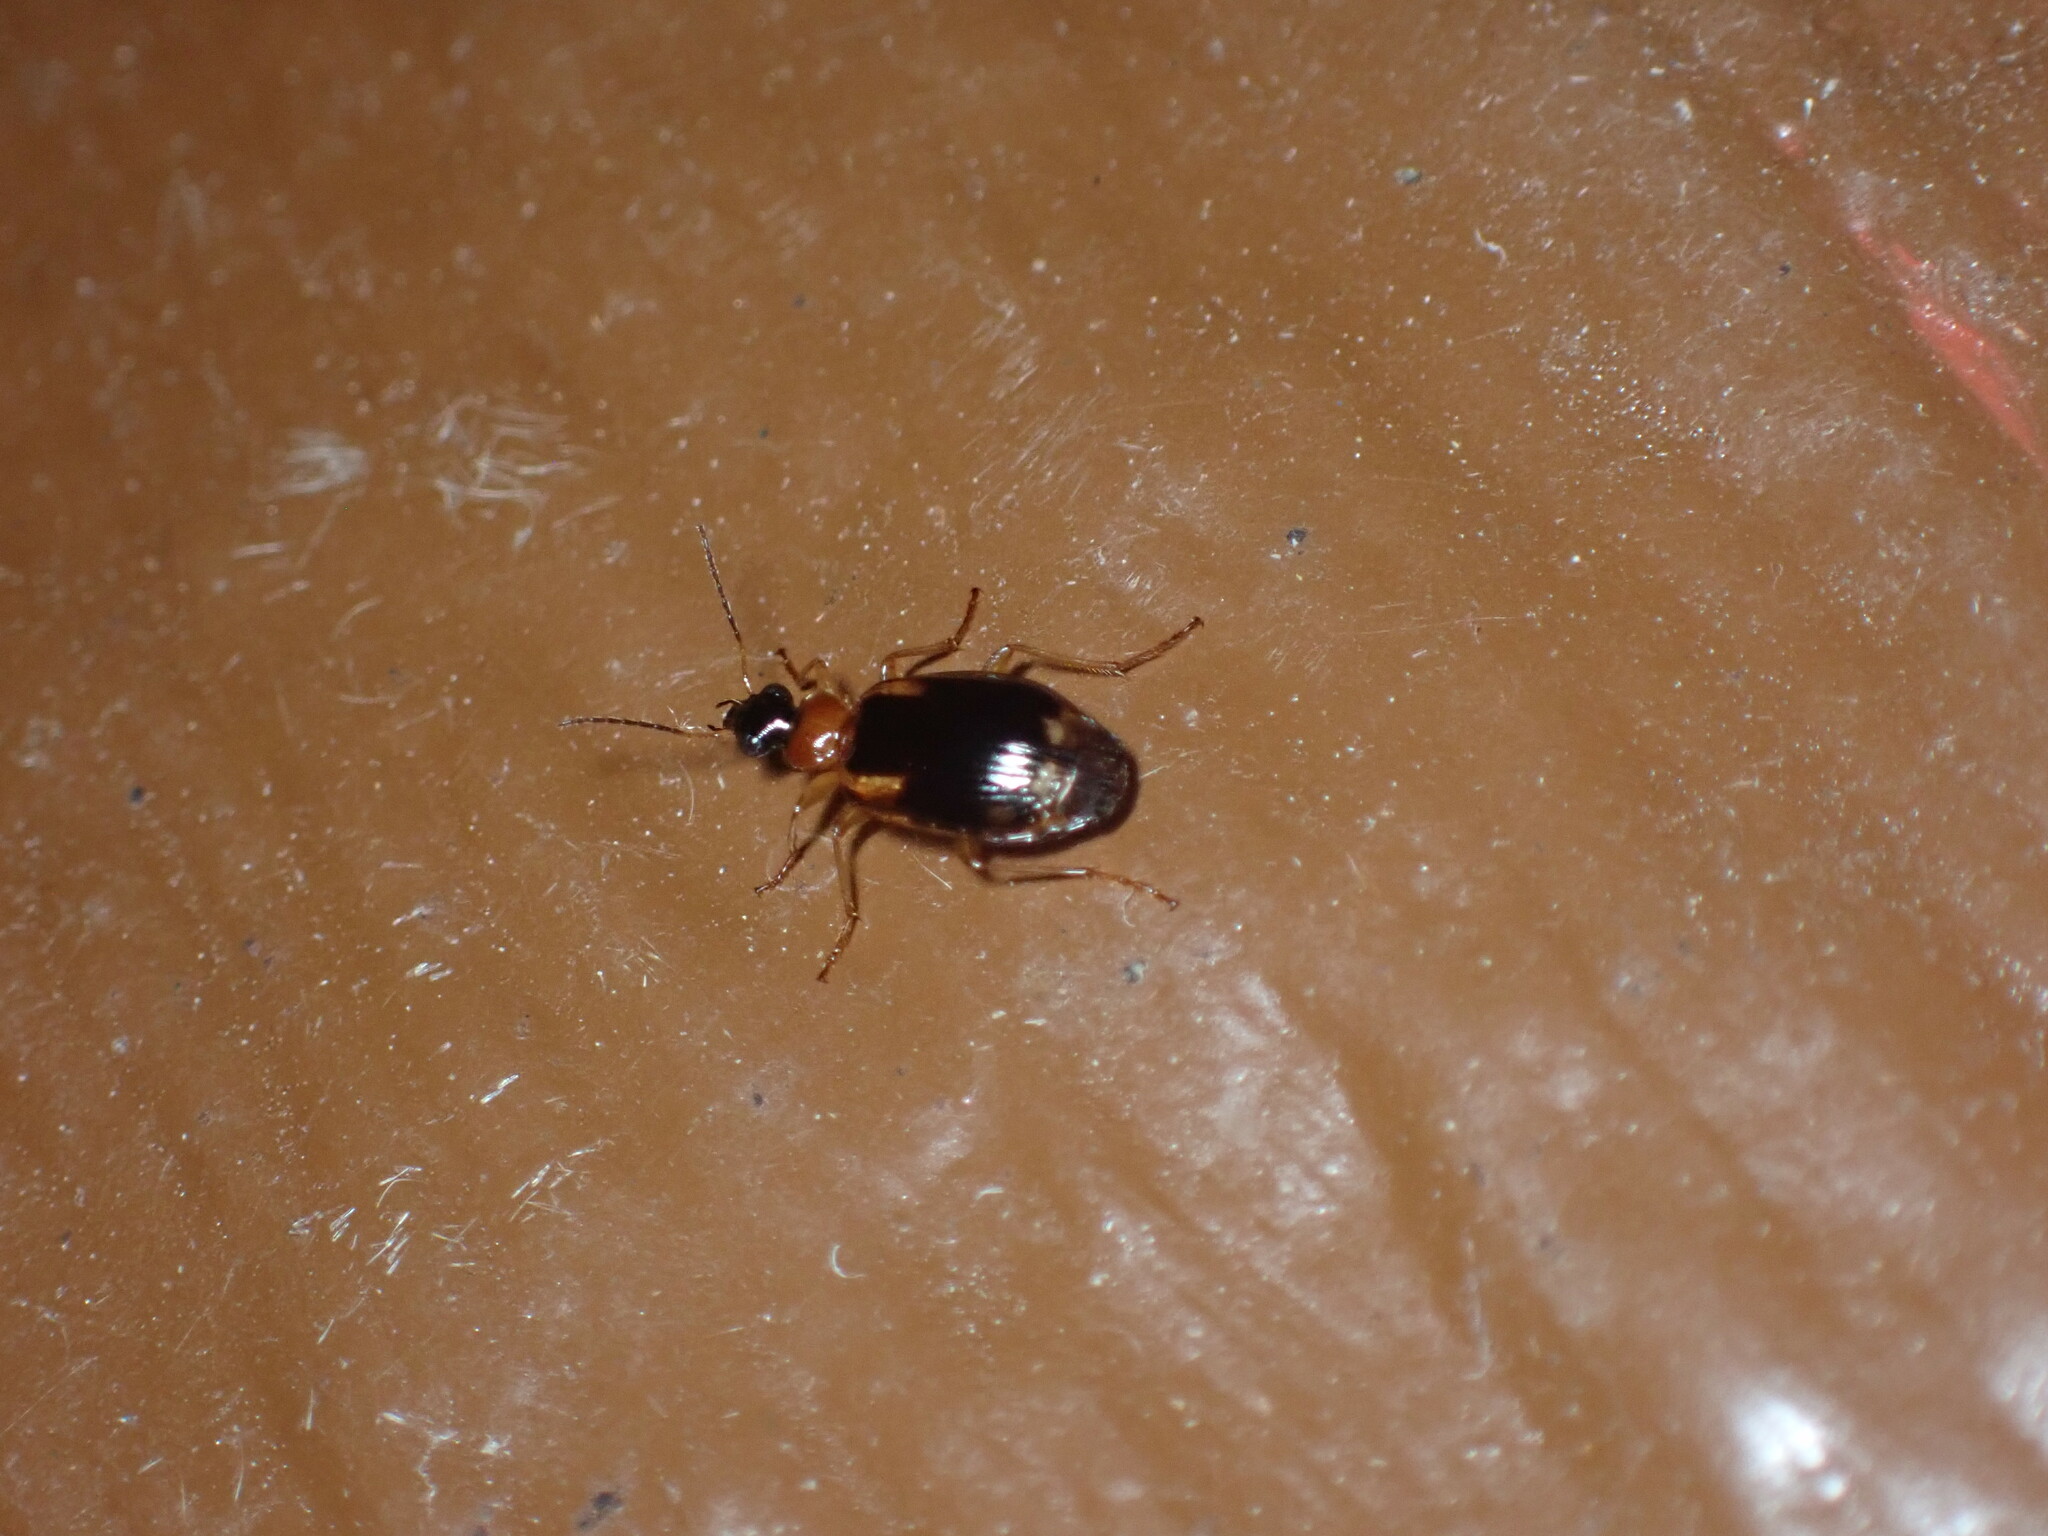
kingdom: Animalia
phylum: Arthropoda
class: Insecta
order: Coleoptera
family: Carabidae
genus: Lebia
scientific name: Lebia analis
